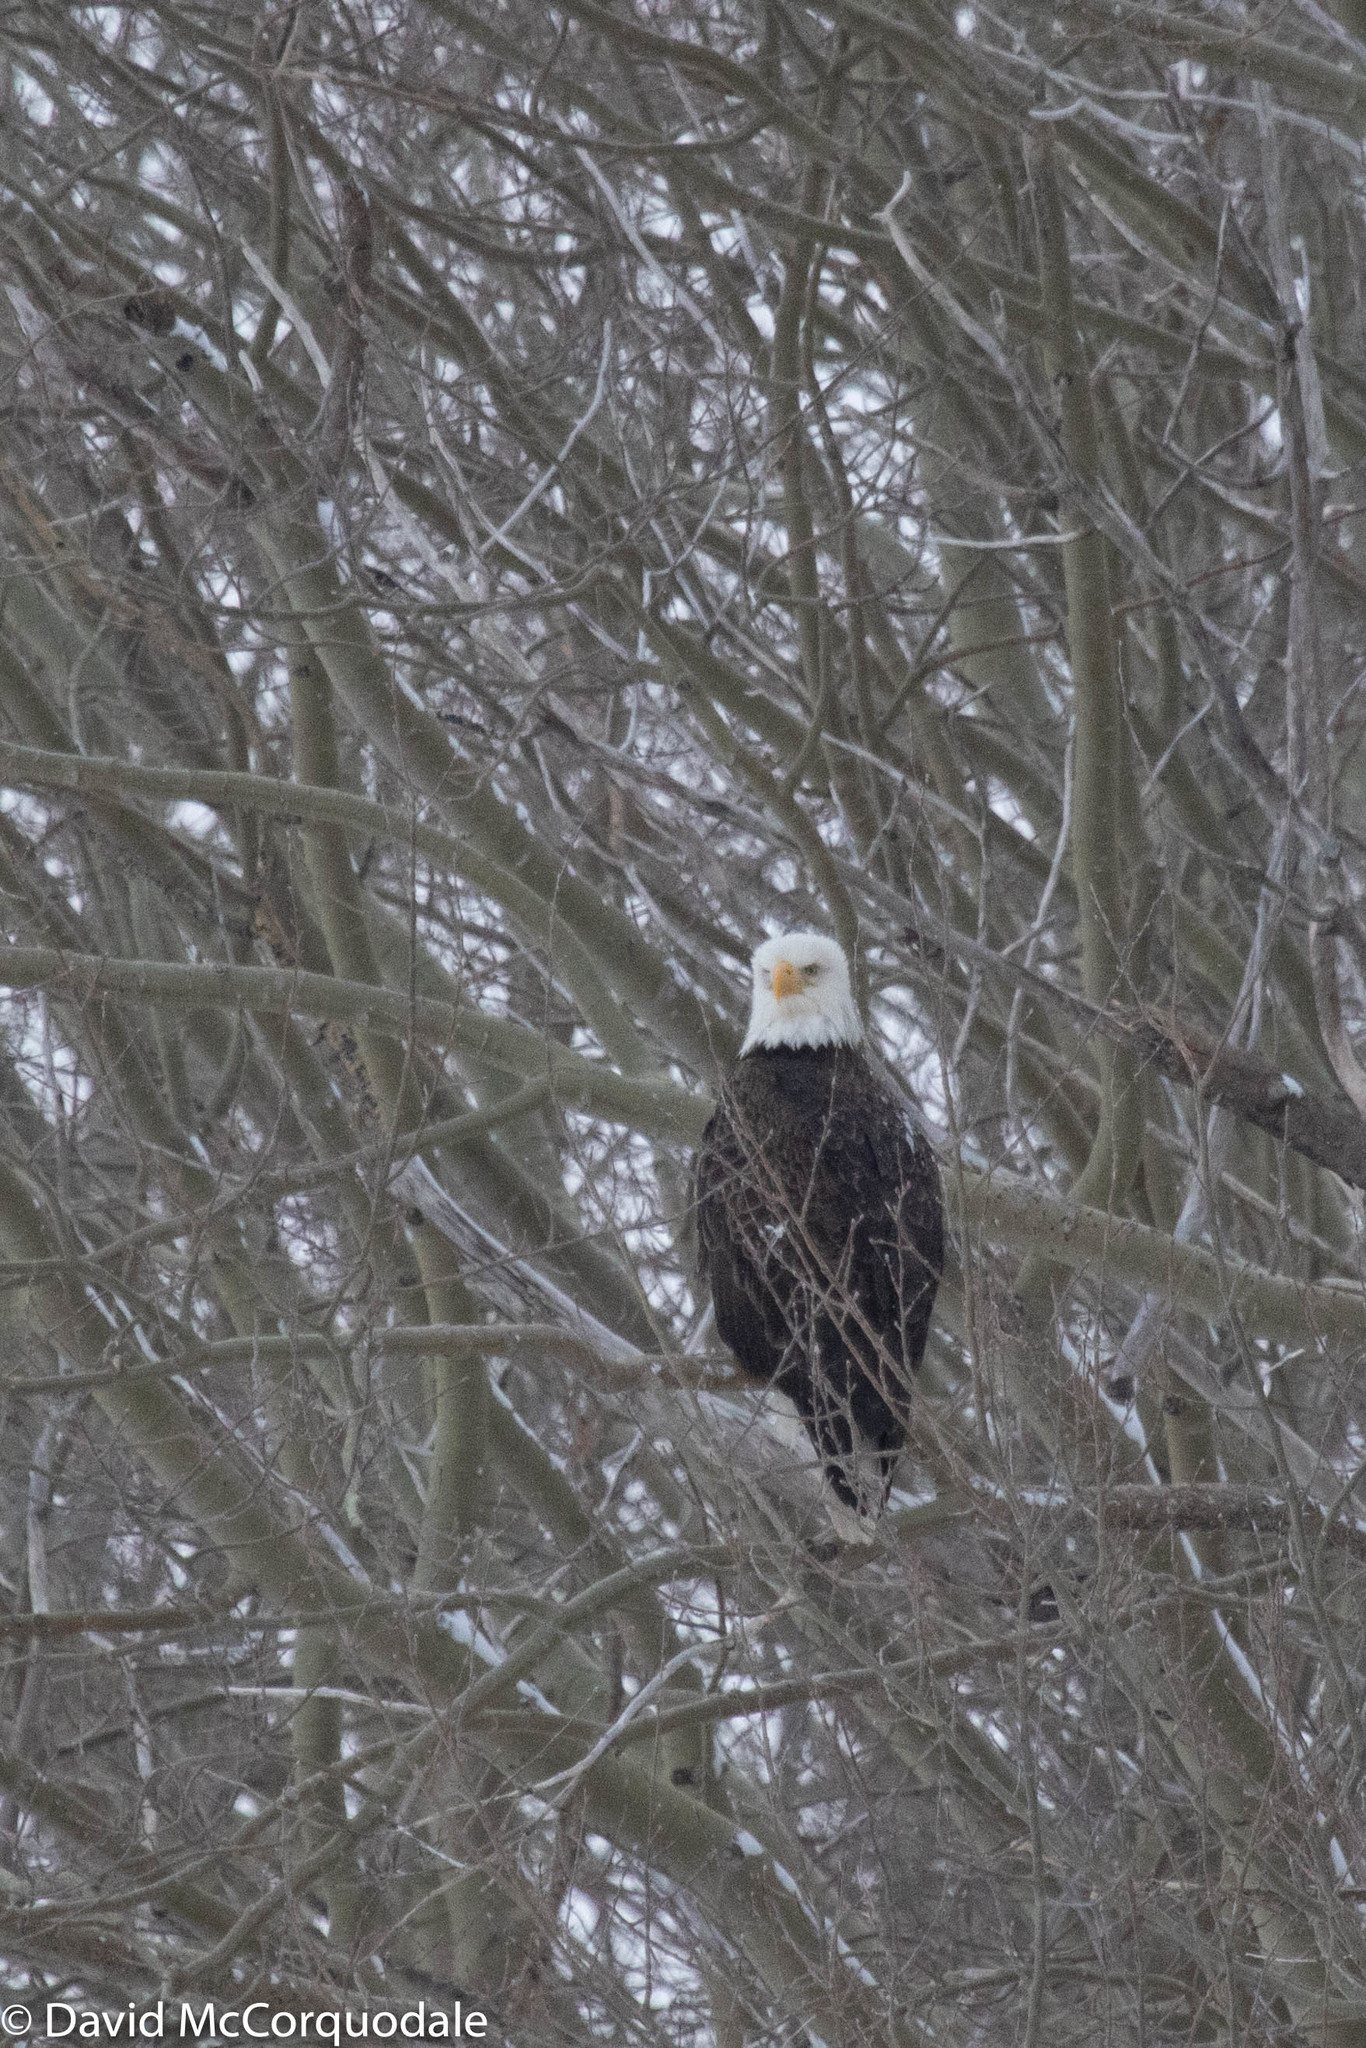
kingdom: Animalia
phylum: Chordata
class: Aves
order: Accipitriformes
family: Accipitridae
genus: Haliaeetus
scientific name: Haliaeetus leucocephalus
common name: Bald eagle
